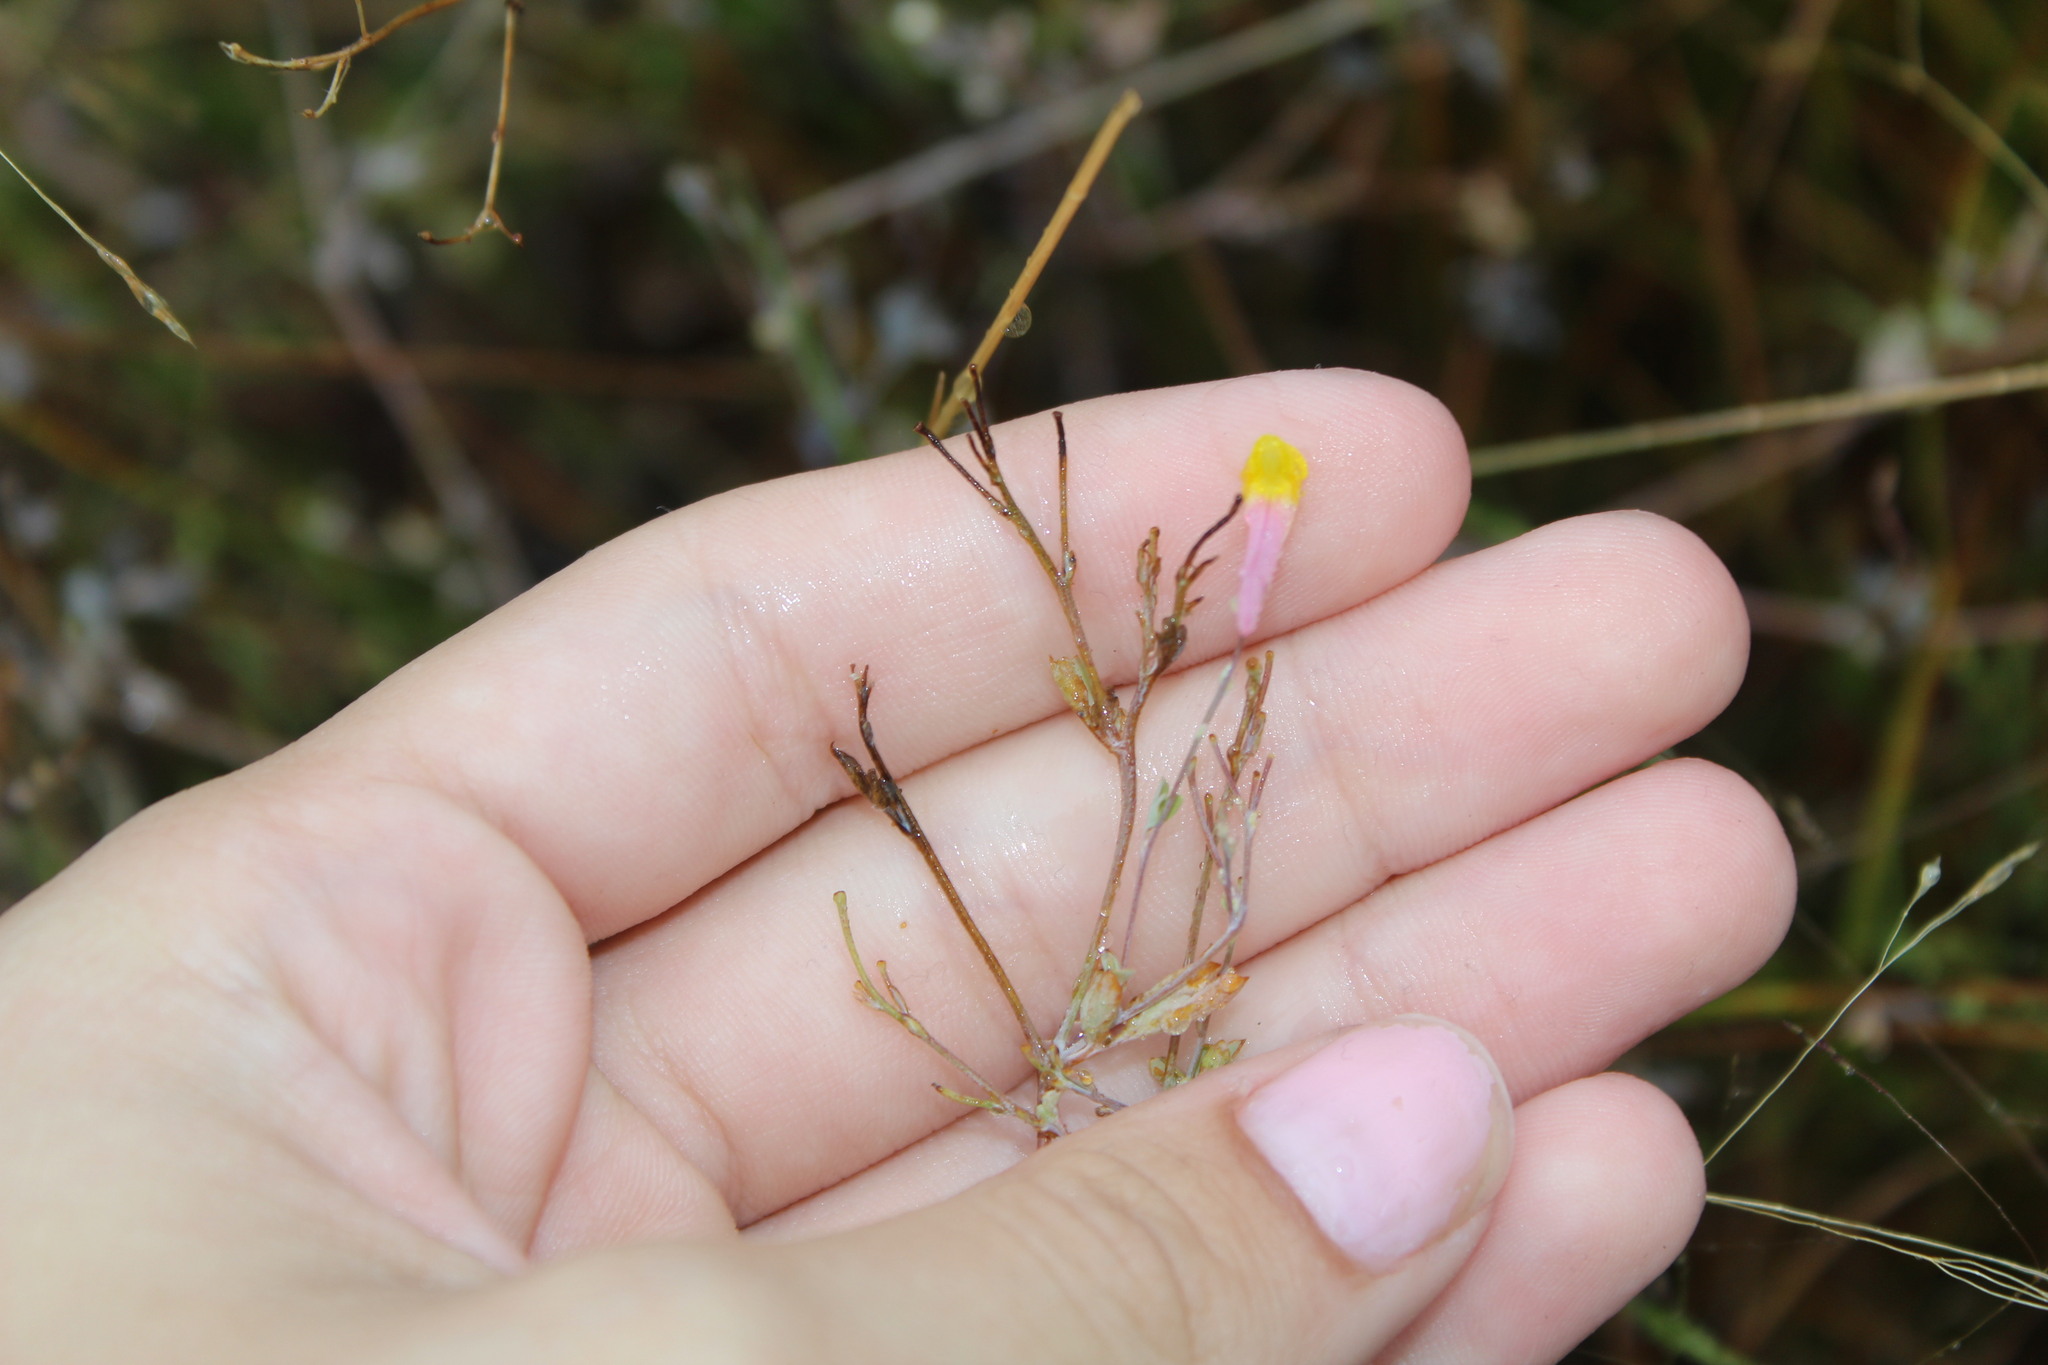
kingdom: Plantae
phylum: Tracheophyta
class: Magnoliopsida
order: Ranunculales
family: Papaveraceae
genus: Capnoides
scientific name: Capnoides sempervirens
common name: Rock harlequin
